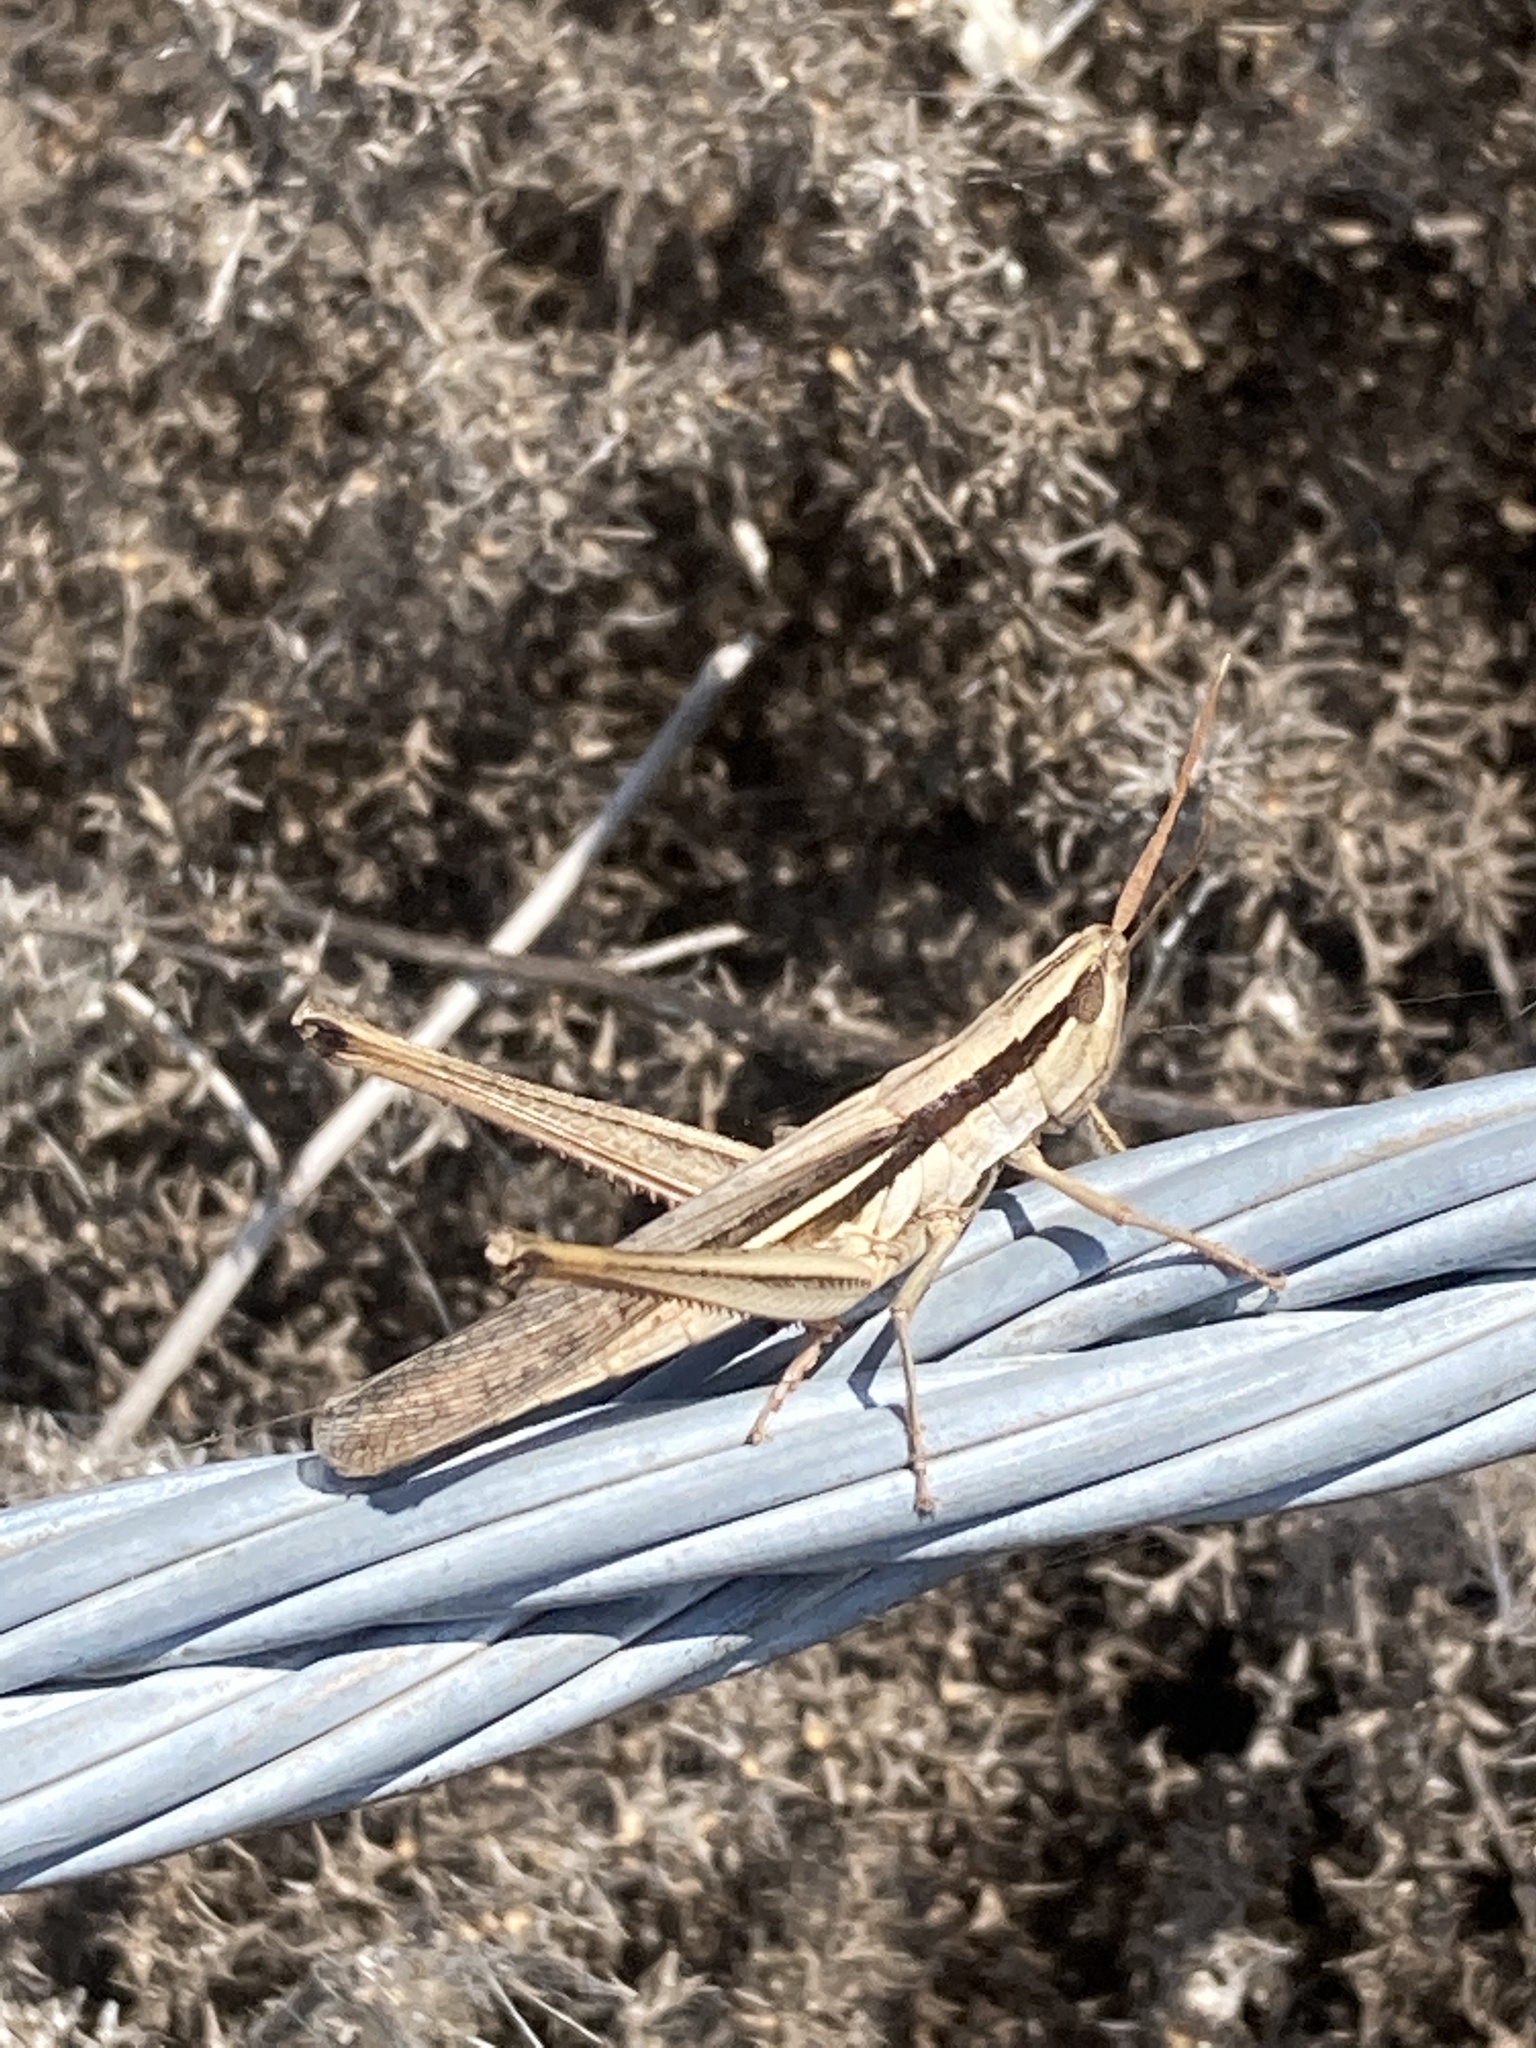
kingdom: Animalia
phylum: Arthropoda
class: Insecta
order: Orthoptera
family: Acrididae
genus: Mermiria
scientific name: Mermiria bivittata
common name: Two-striped mermiria grasshopper
